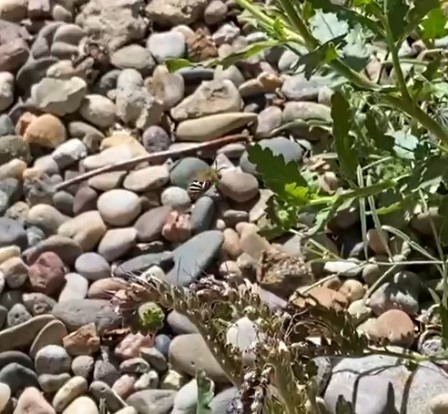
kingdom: Animalia
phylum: Arthropoda
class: Insecta
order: Hymenoptera
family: Apidae
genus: Anthophora
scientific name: Anthophora californica
